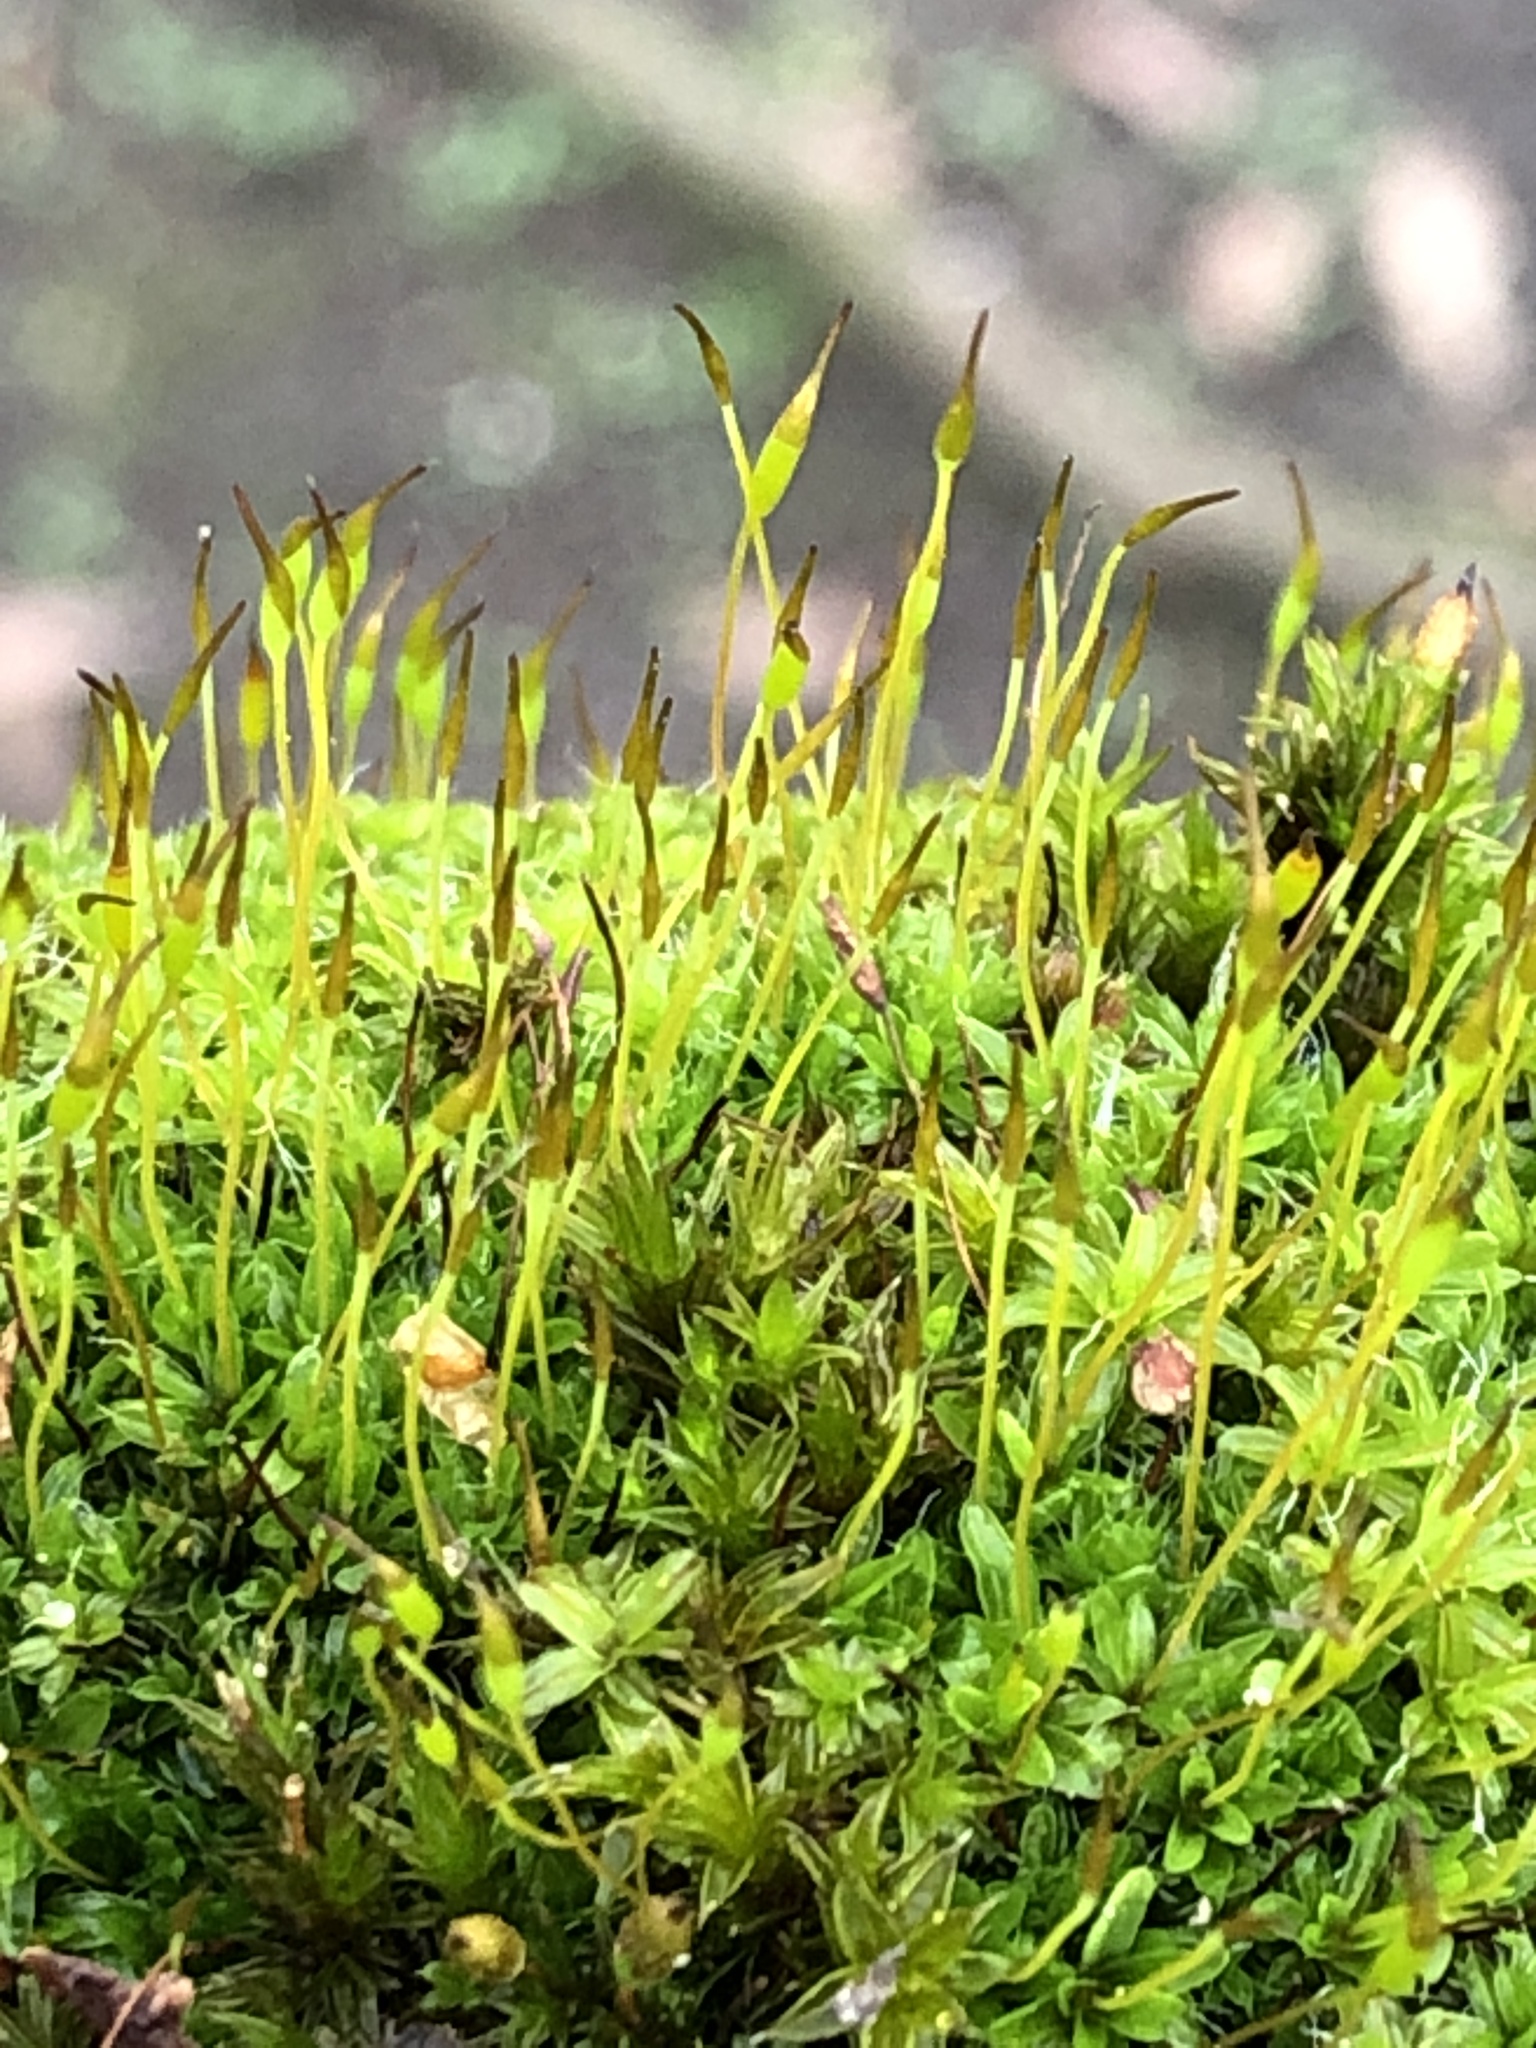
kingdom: Plantae
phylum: Bryophyta
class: Bryopsida
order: Pottiales
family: Pottiaceae
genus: Tortula
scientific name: Tortula muralis
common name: Wall screw-moss
